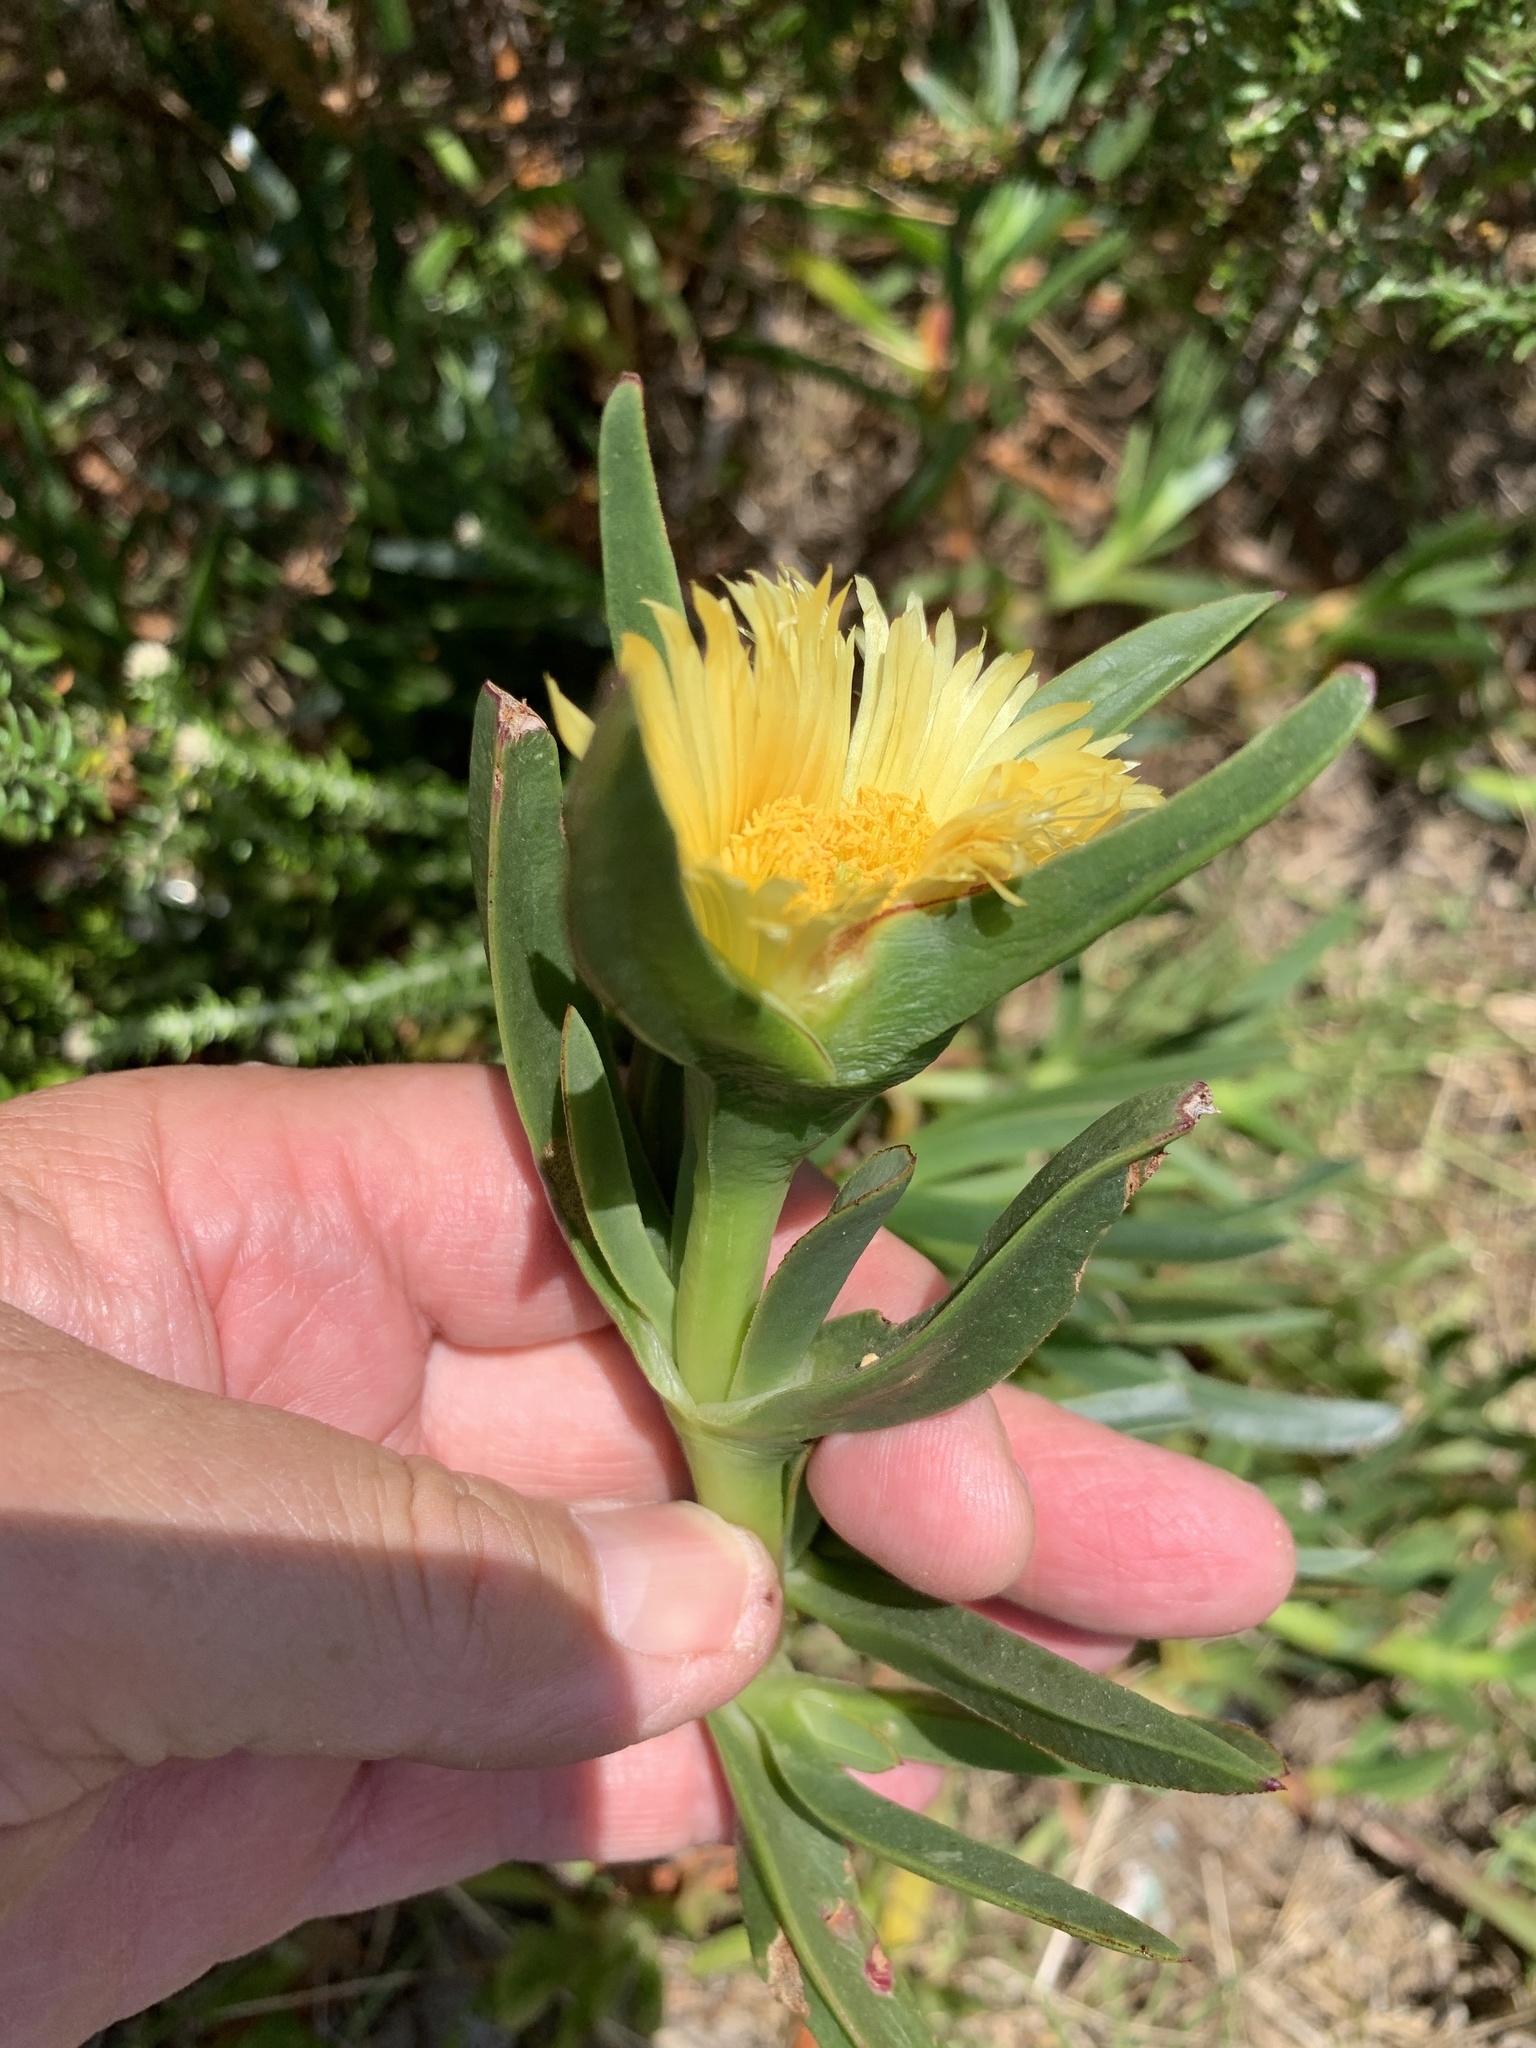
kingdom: Plantae
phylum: Tracheophyta
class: Magnoliopsida
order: Caryophyllales
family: Aizoaceae
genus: Carpobrotus
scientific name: Carpobrotus edulis
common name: Hottentot-fig
